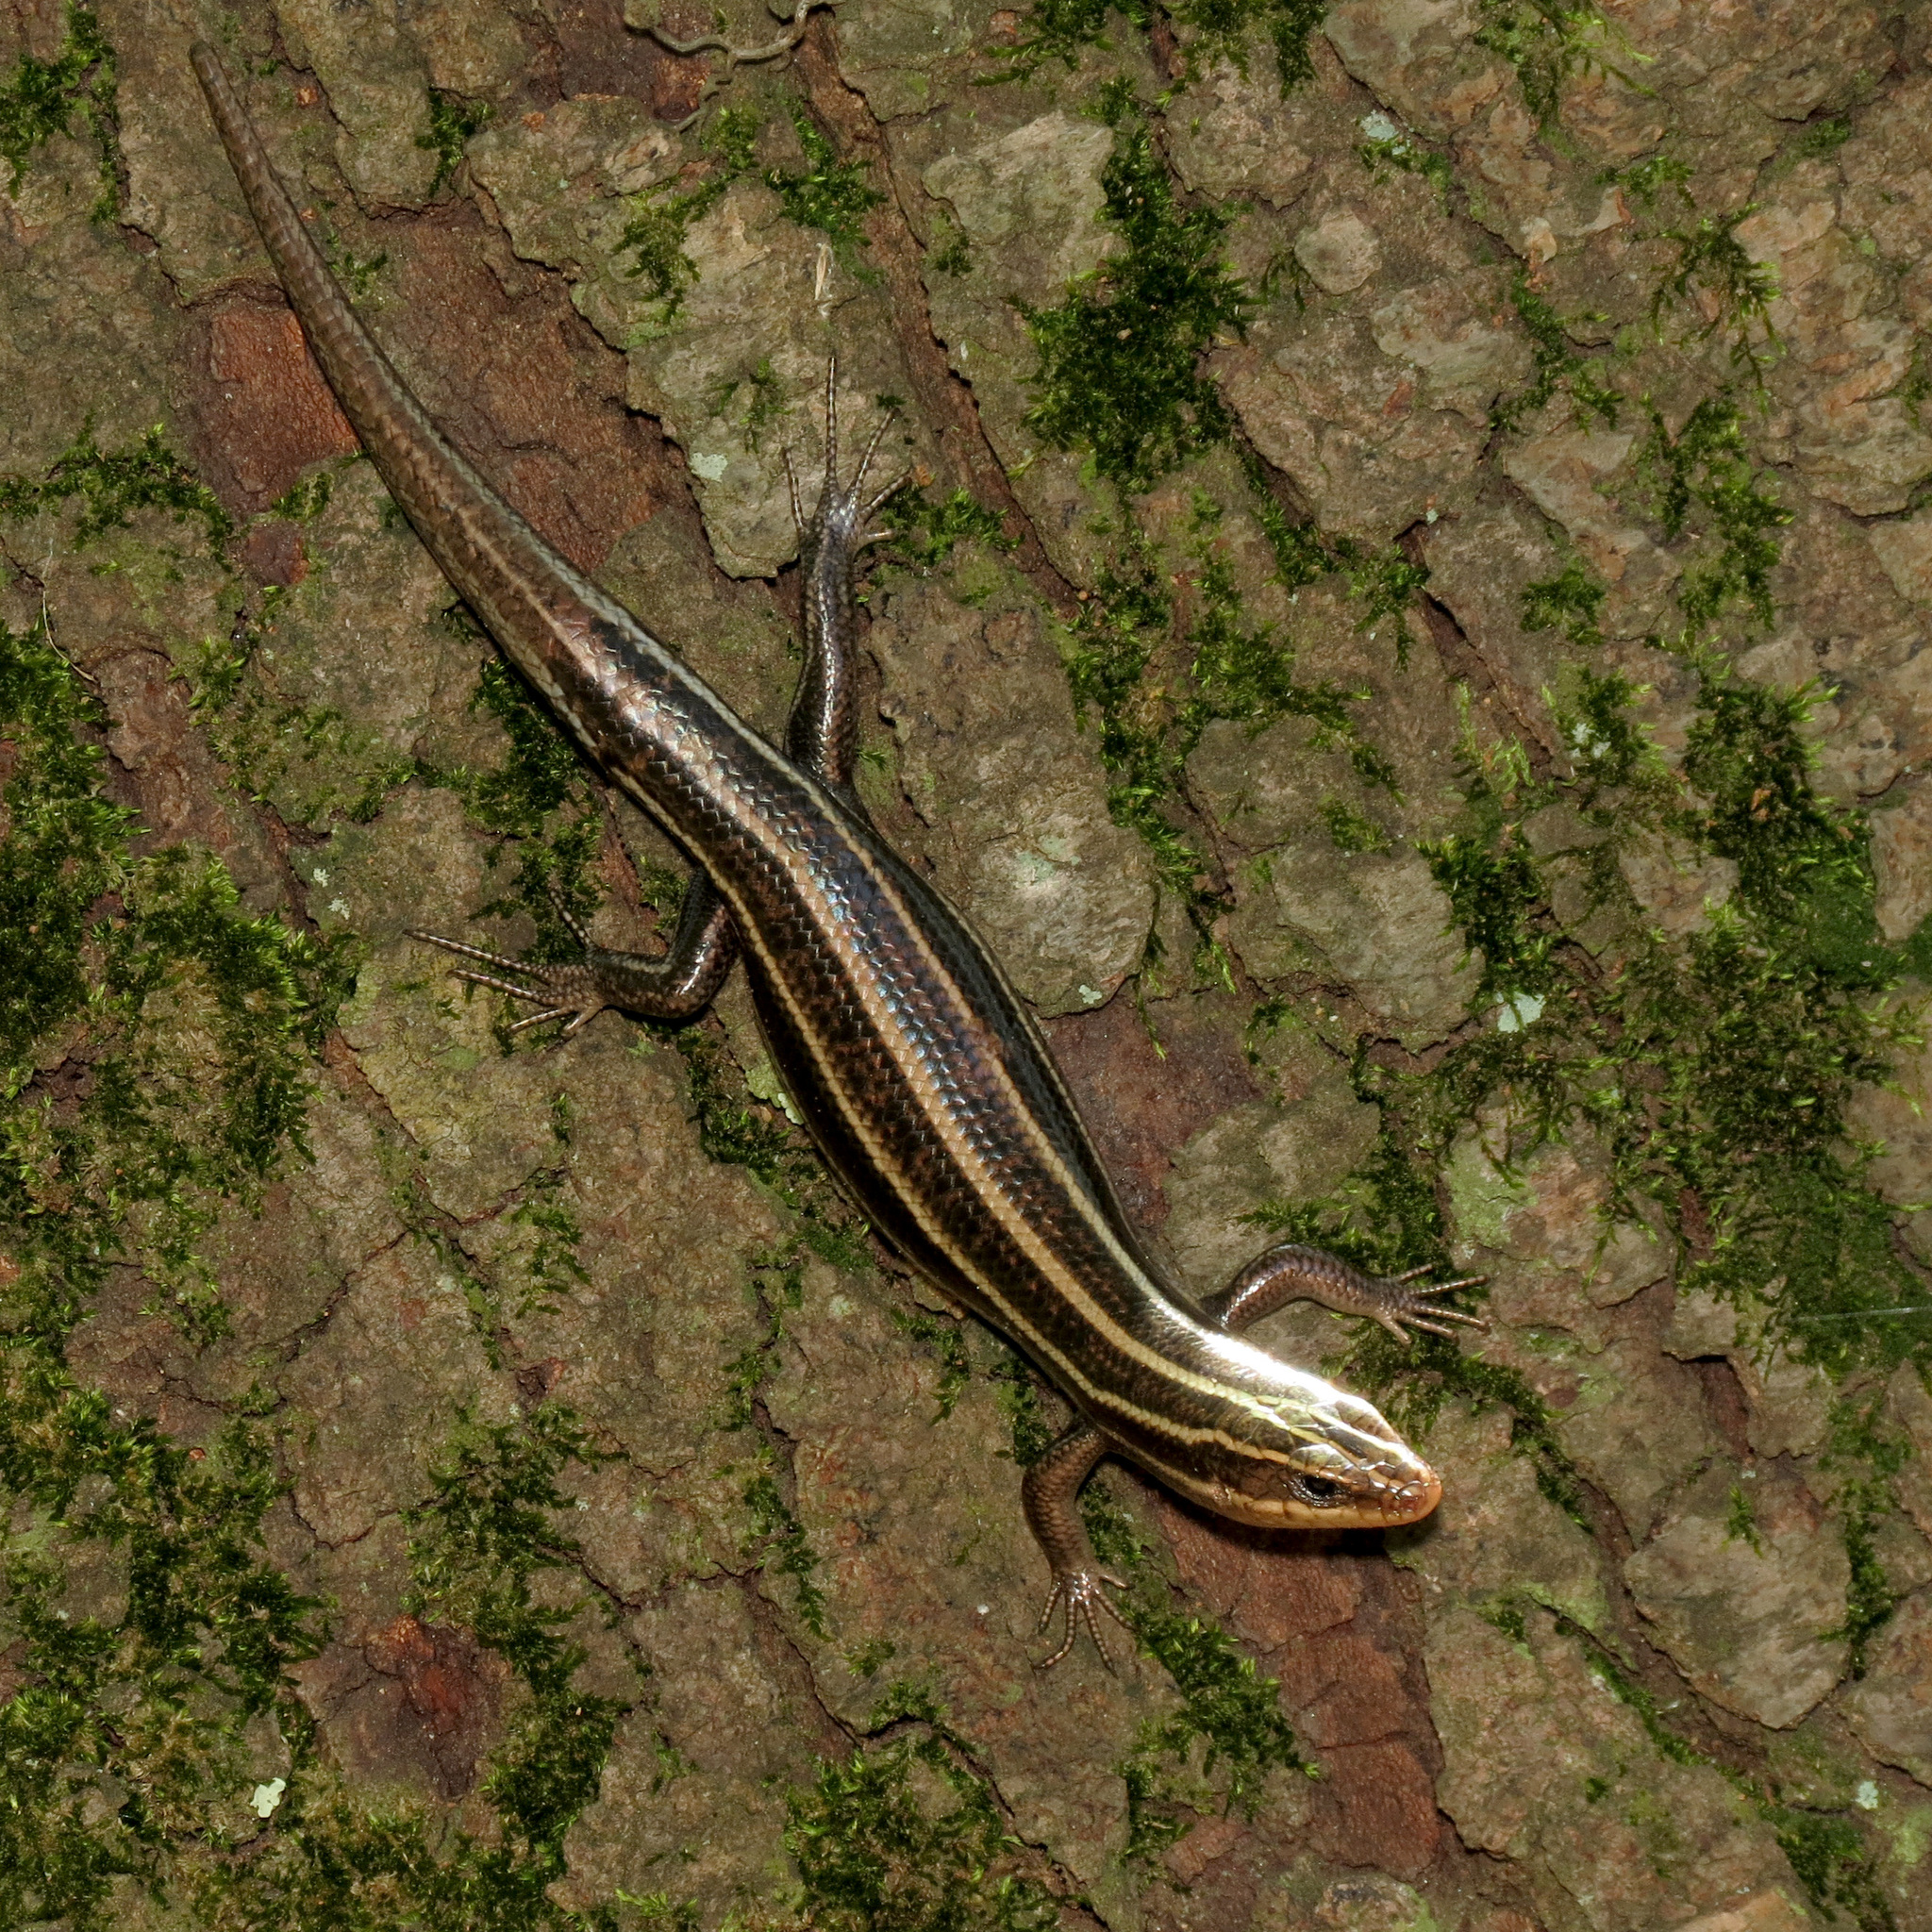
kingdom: Animalia
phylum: Chordata
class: Squamata
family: Scincidae
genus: Plestiodon
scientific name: Plestiodon fasciatus
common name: Five-lined skink
